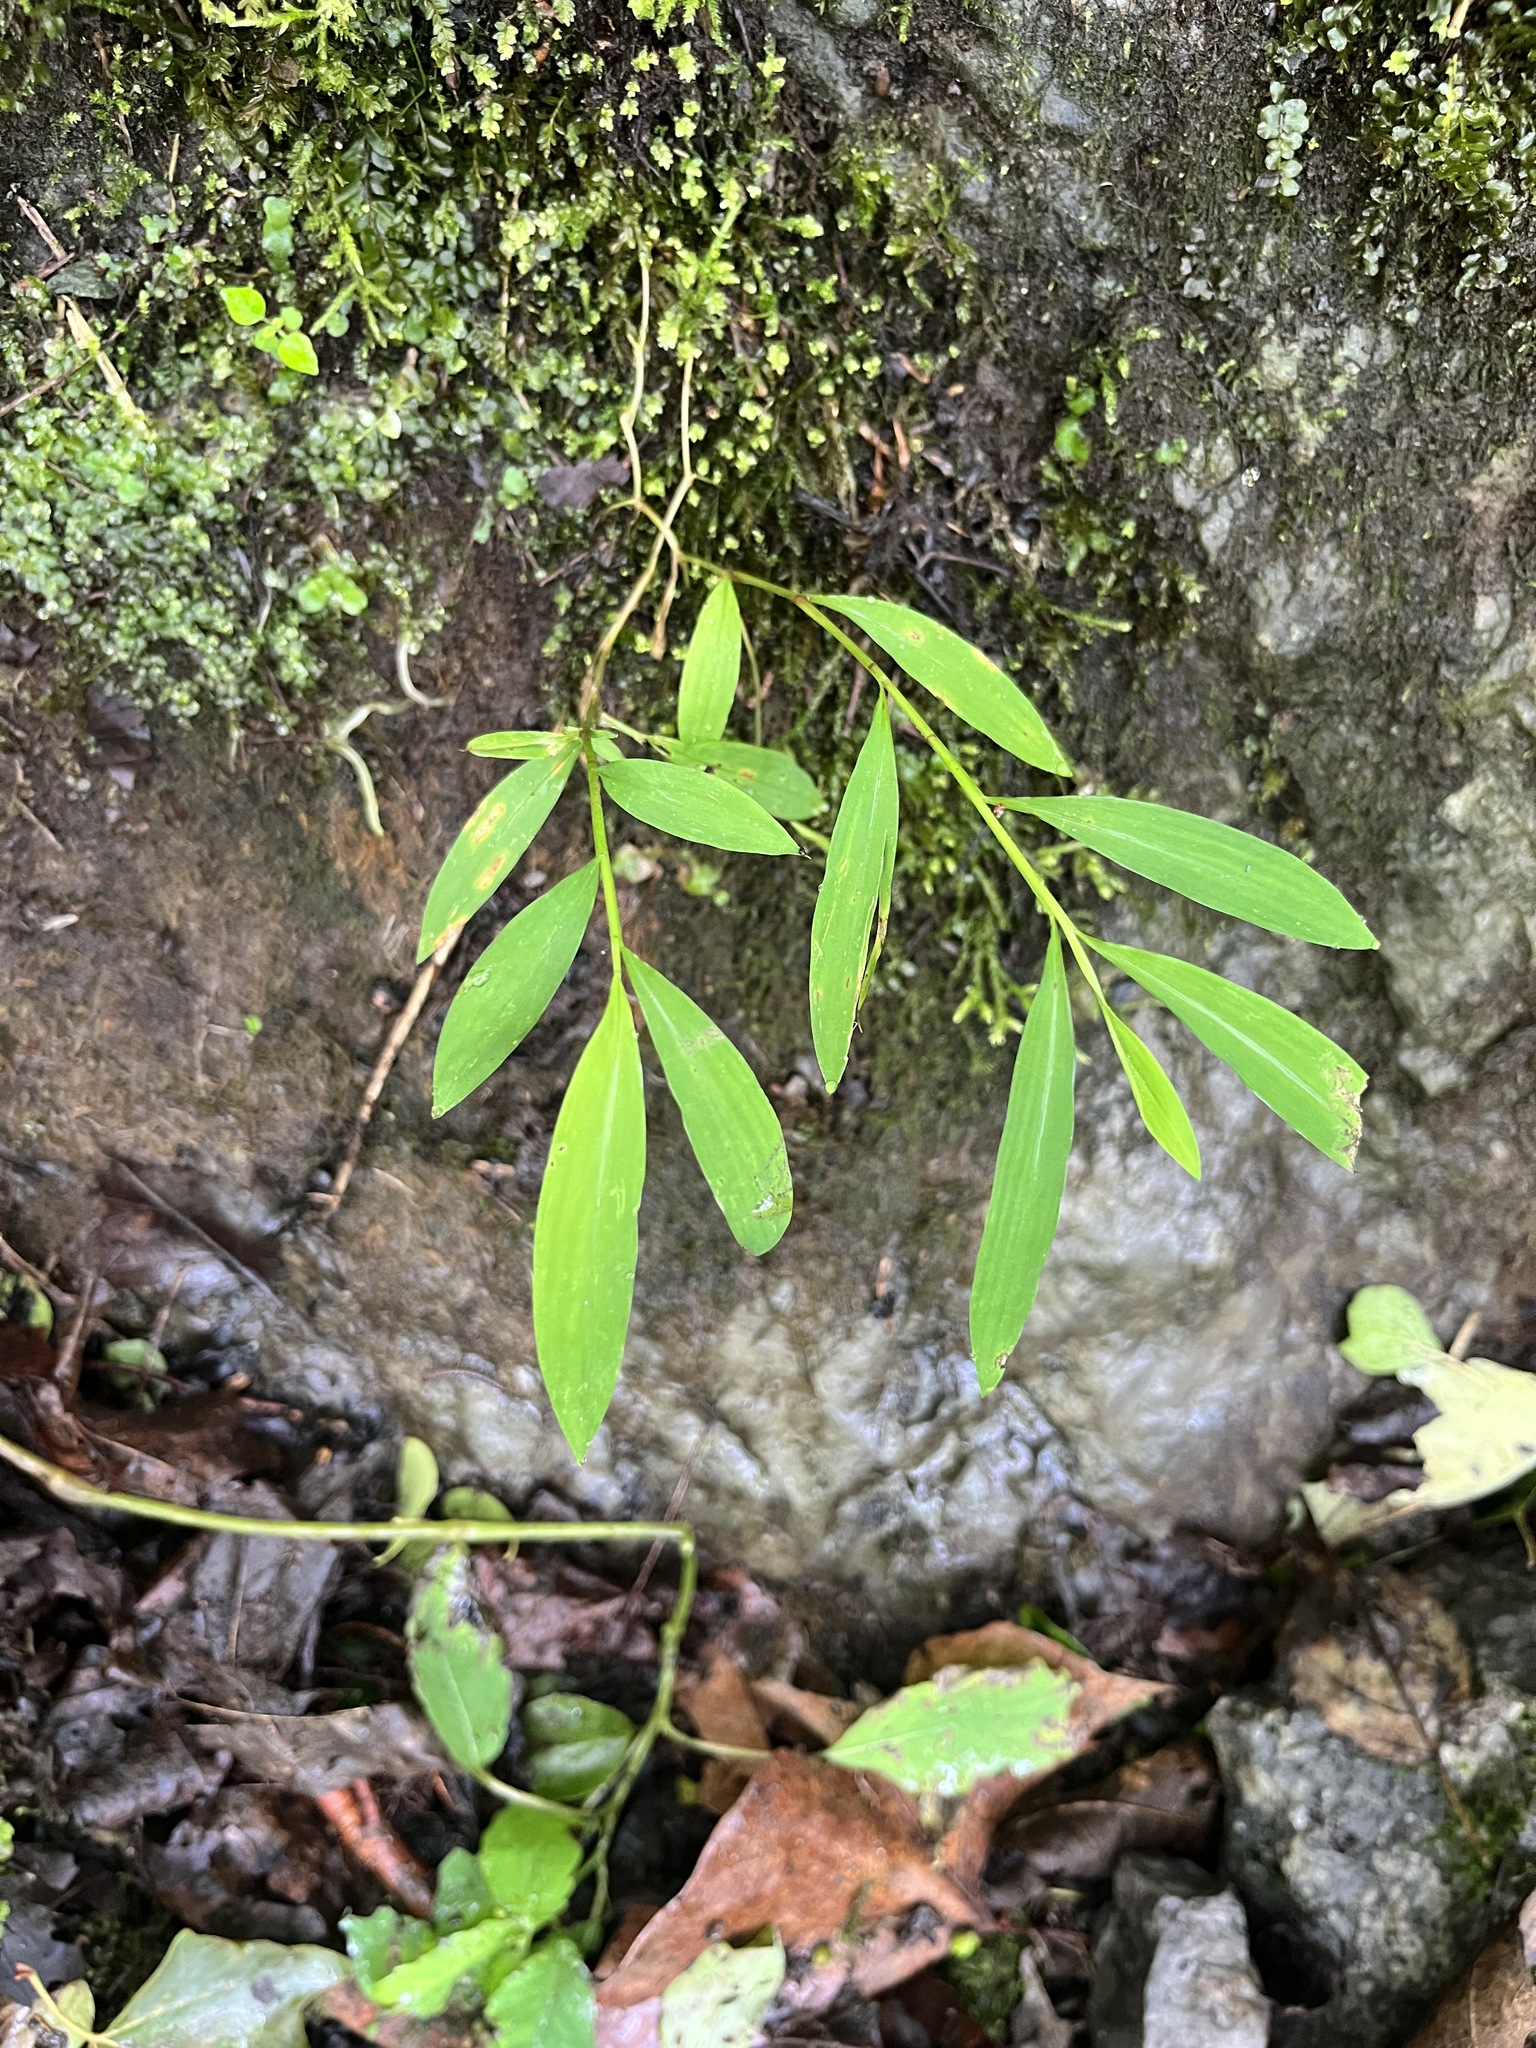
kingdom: Plantae
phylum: Tracheophyta
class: Liliopsida
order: Poales
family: Poaceae
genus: Microstegium
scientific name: Microstegium vimineum
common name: Japanese stiltgrass
